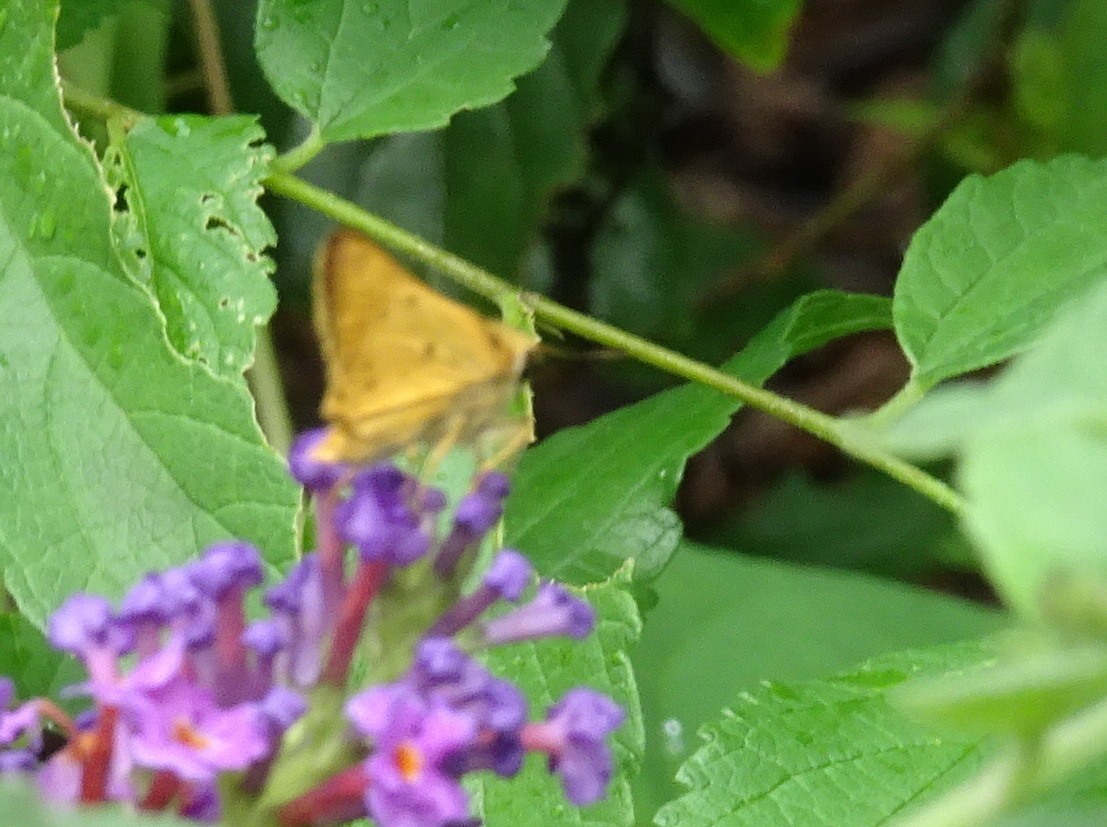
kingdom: Animalia
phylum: Arthropoda
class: Insecta
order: Lepidoptera
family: Hesperiidae
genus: Hylephila
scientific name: Hylephila phyleus
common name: Fiery skipper
